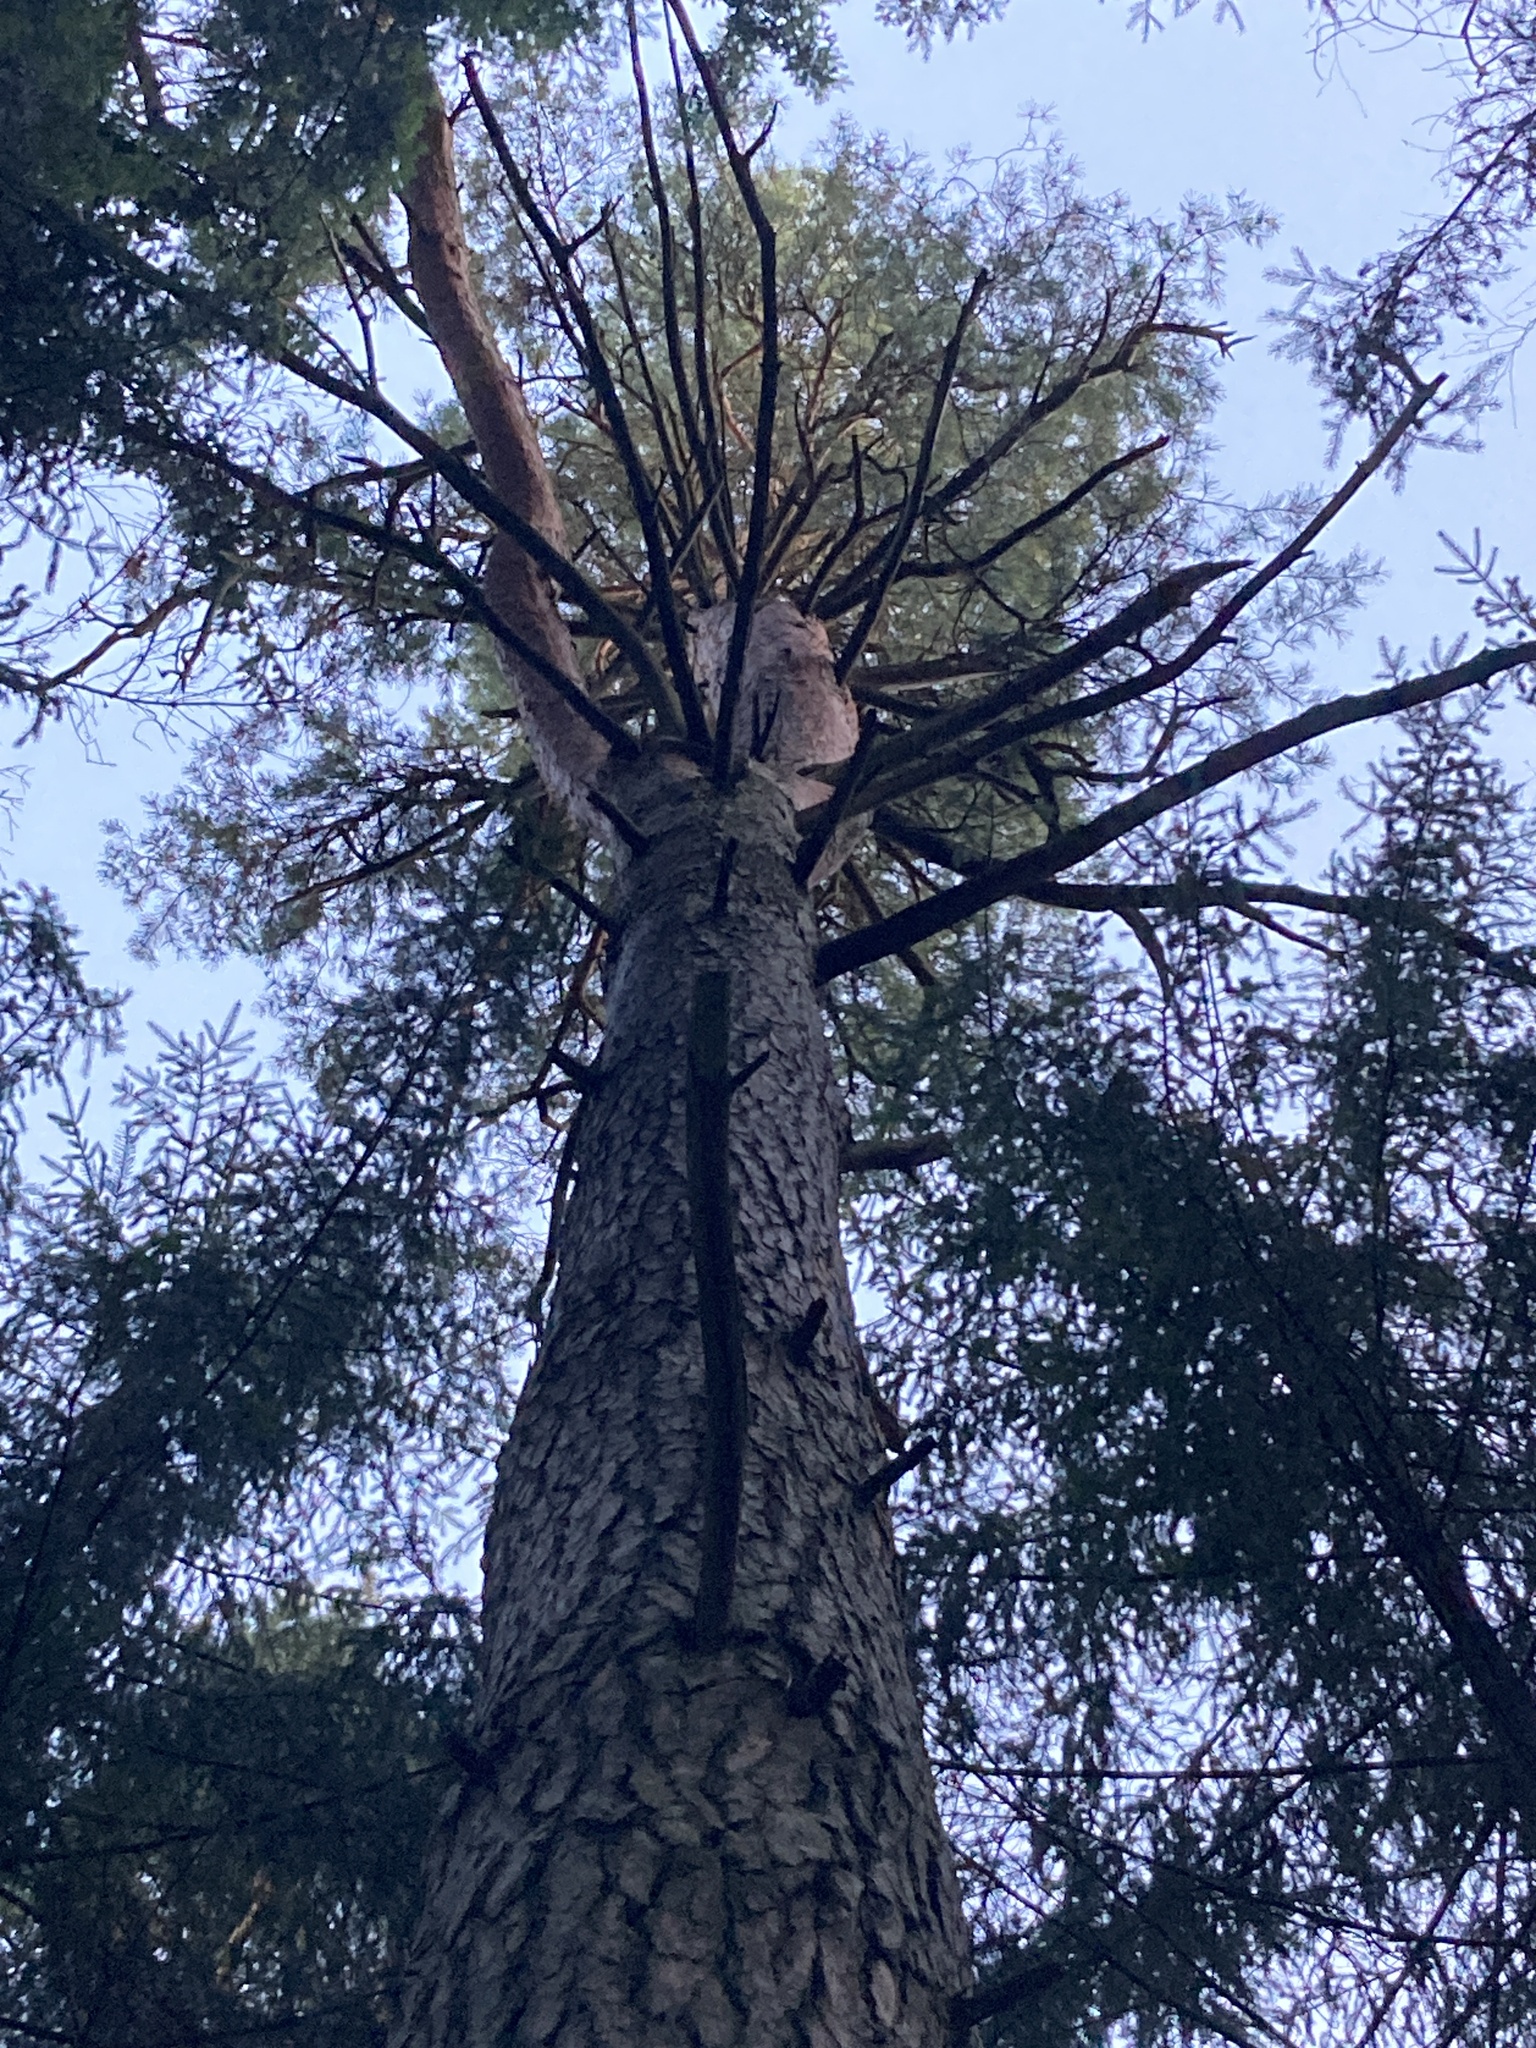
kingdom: Plantae
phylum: Tracheophyta
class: Pinopsida
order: Pinales
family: Pinaceae
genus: Pinus
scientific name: Pinus sylvestris
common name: Scots pine
